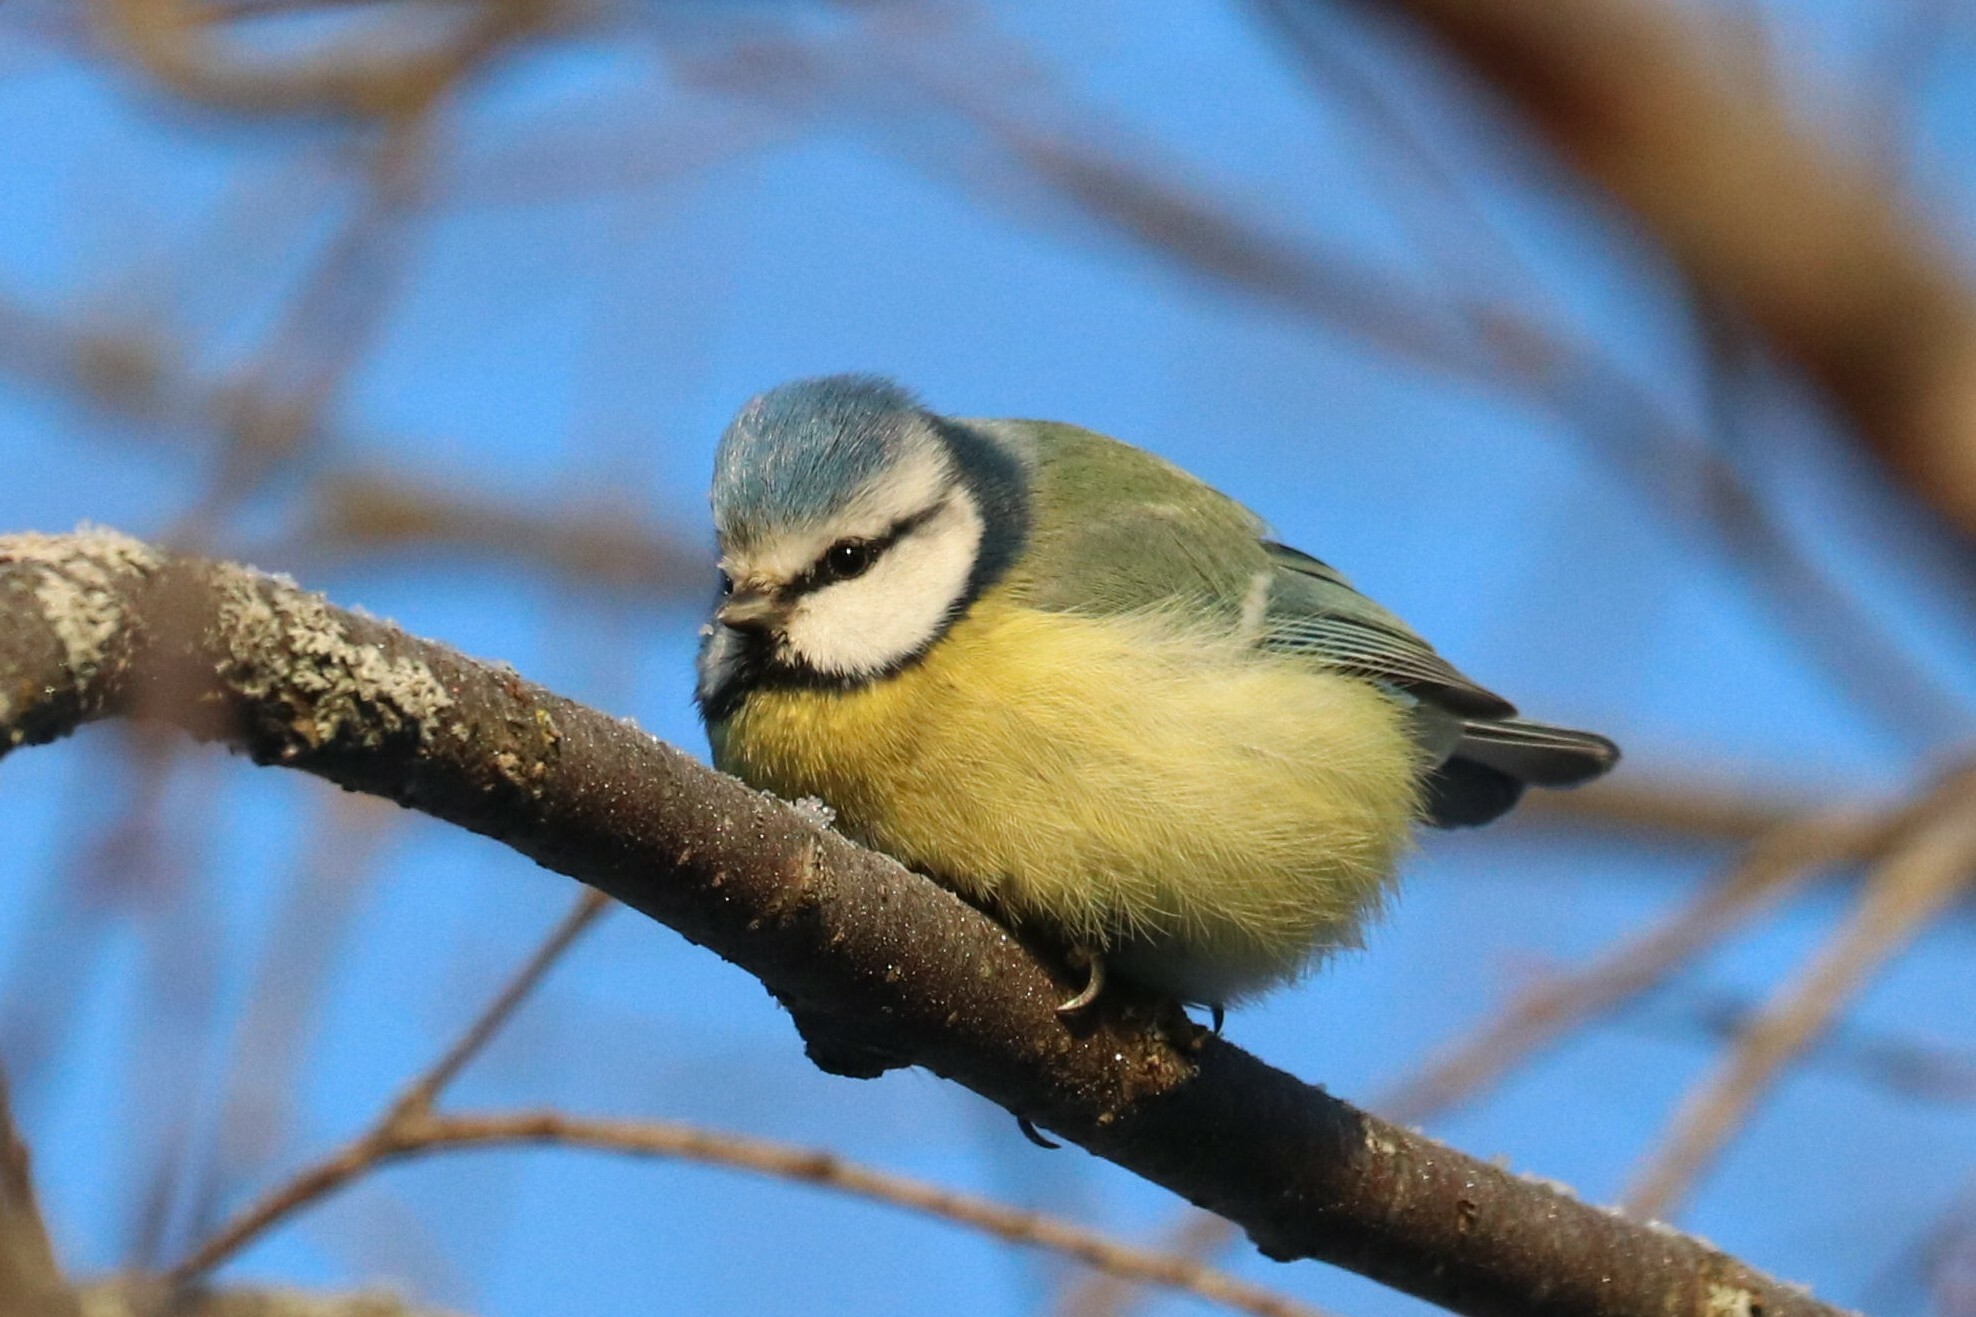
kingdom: Animalia
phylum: Chordata
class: Aves
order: Passeriformes
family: Paridae
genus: Cyanistes
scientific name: Cyanistes caeruleus
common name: Eurasian blue tit
